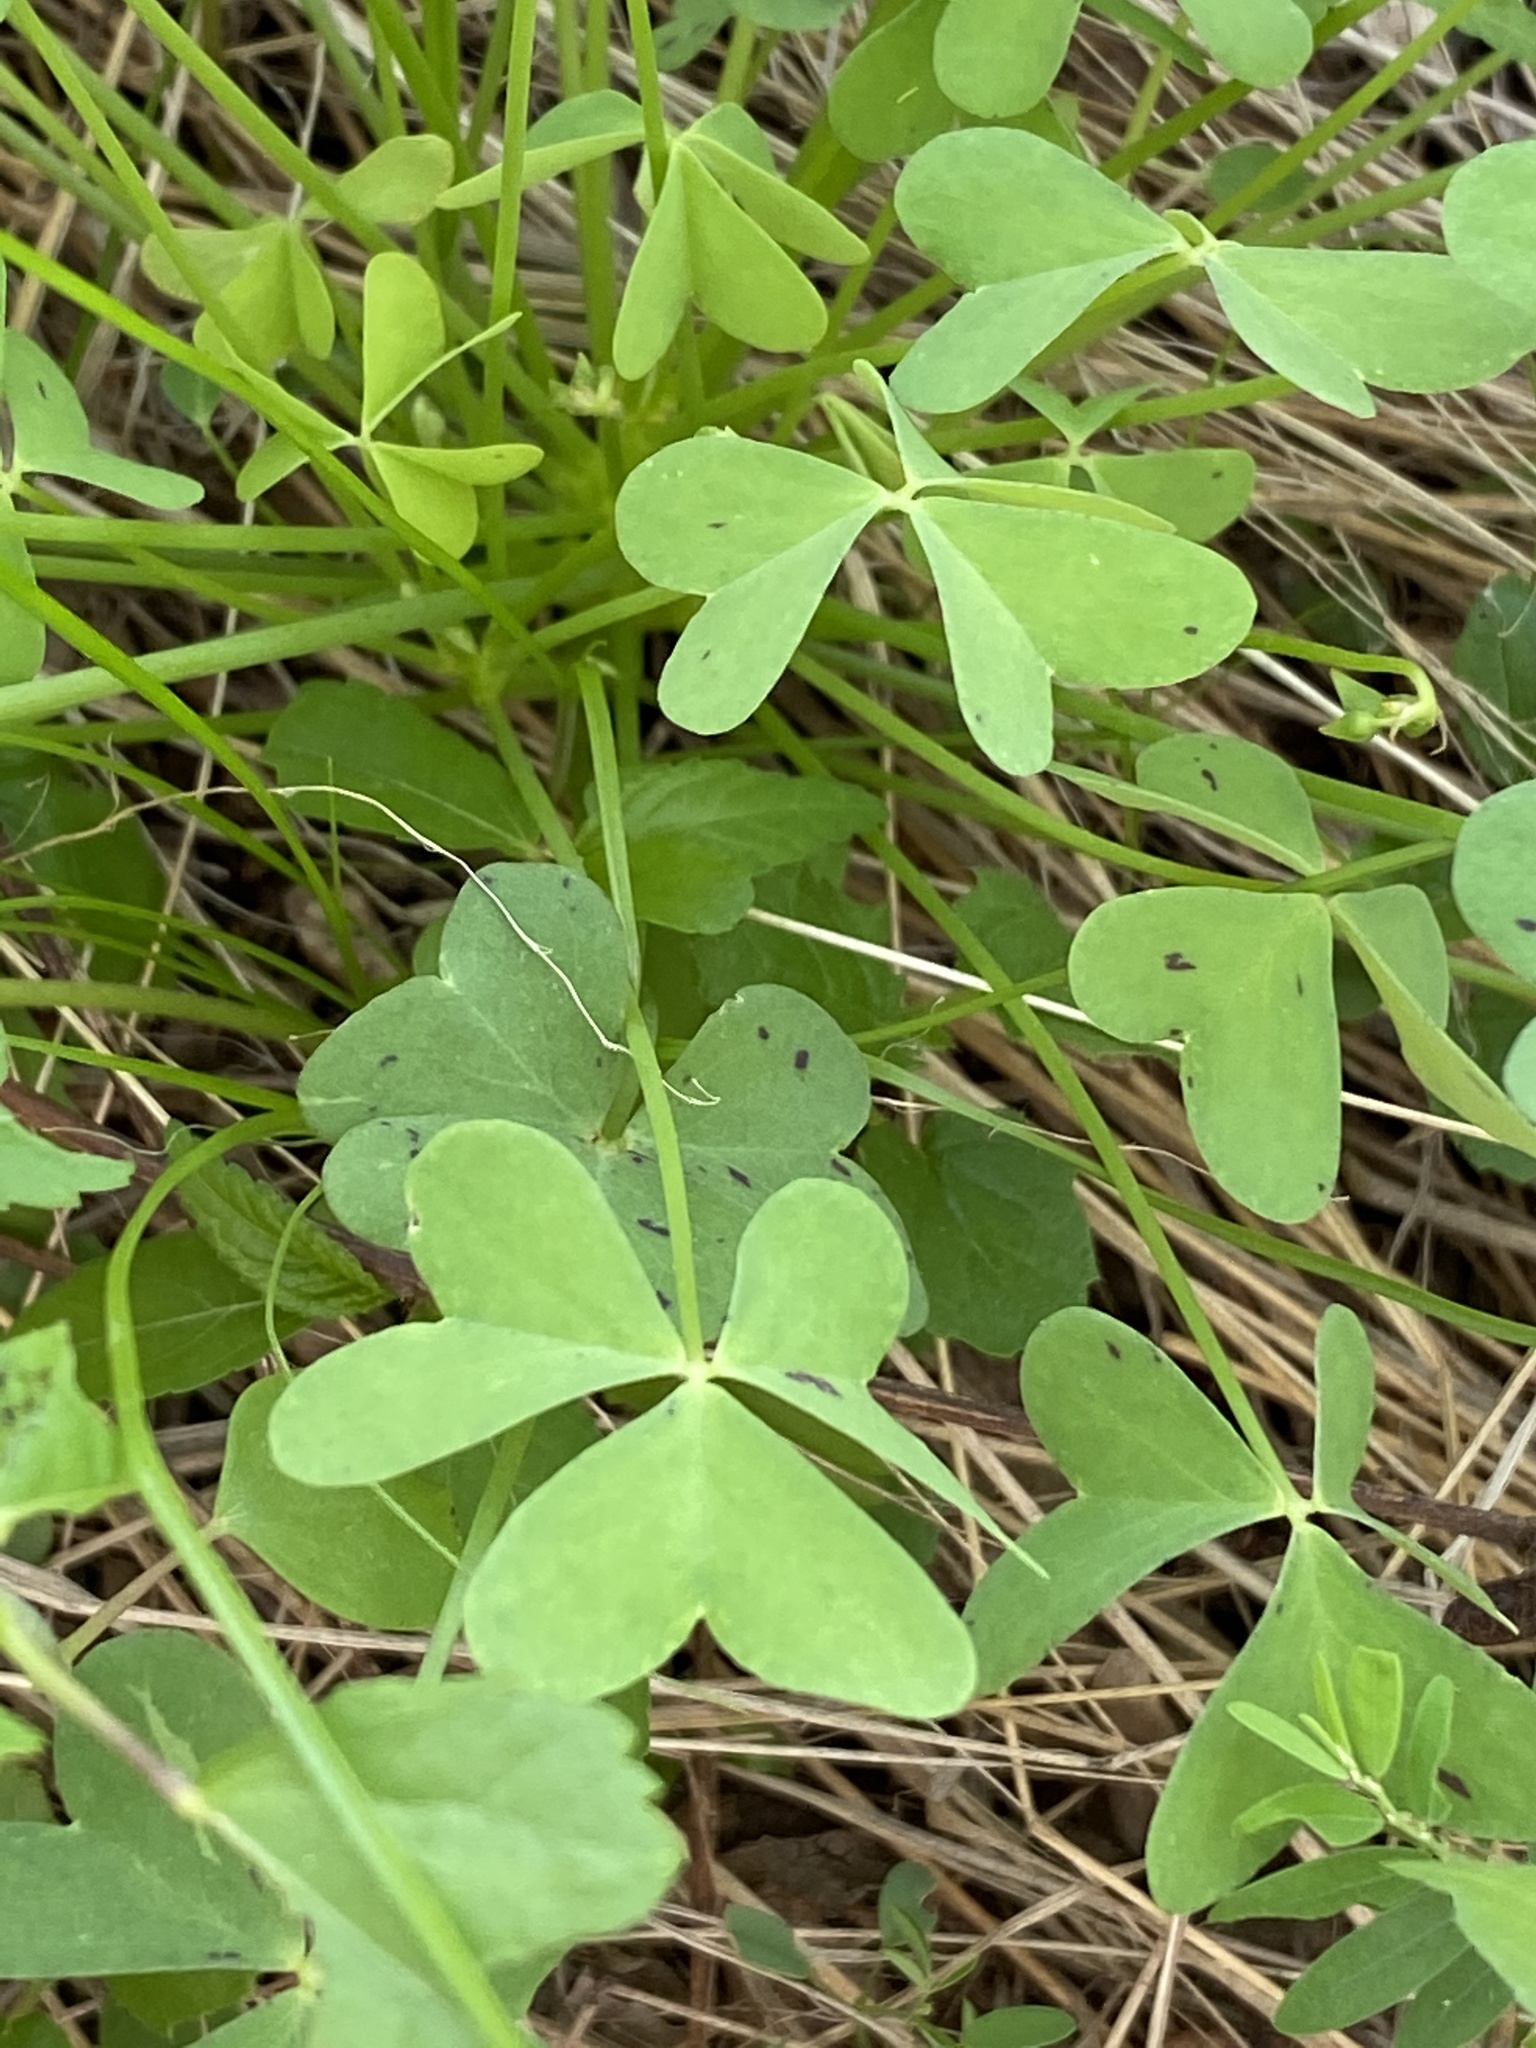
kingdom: Plantae
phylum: Tracheophyta
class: Magnoliopsida
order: Oxalidales
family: Oxalidaceae
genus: Oxalis
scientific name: Oxalis purpurascens
